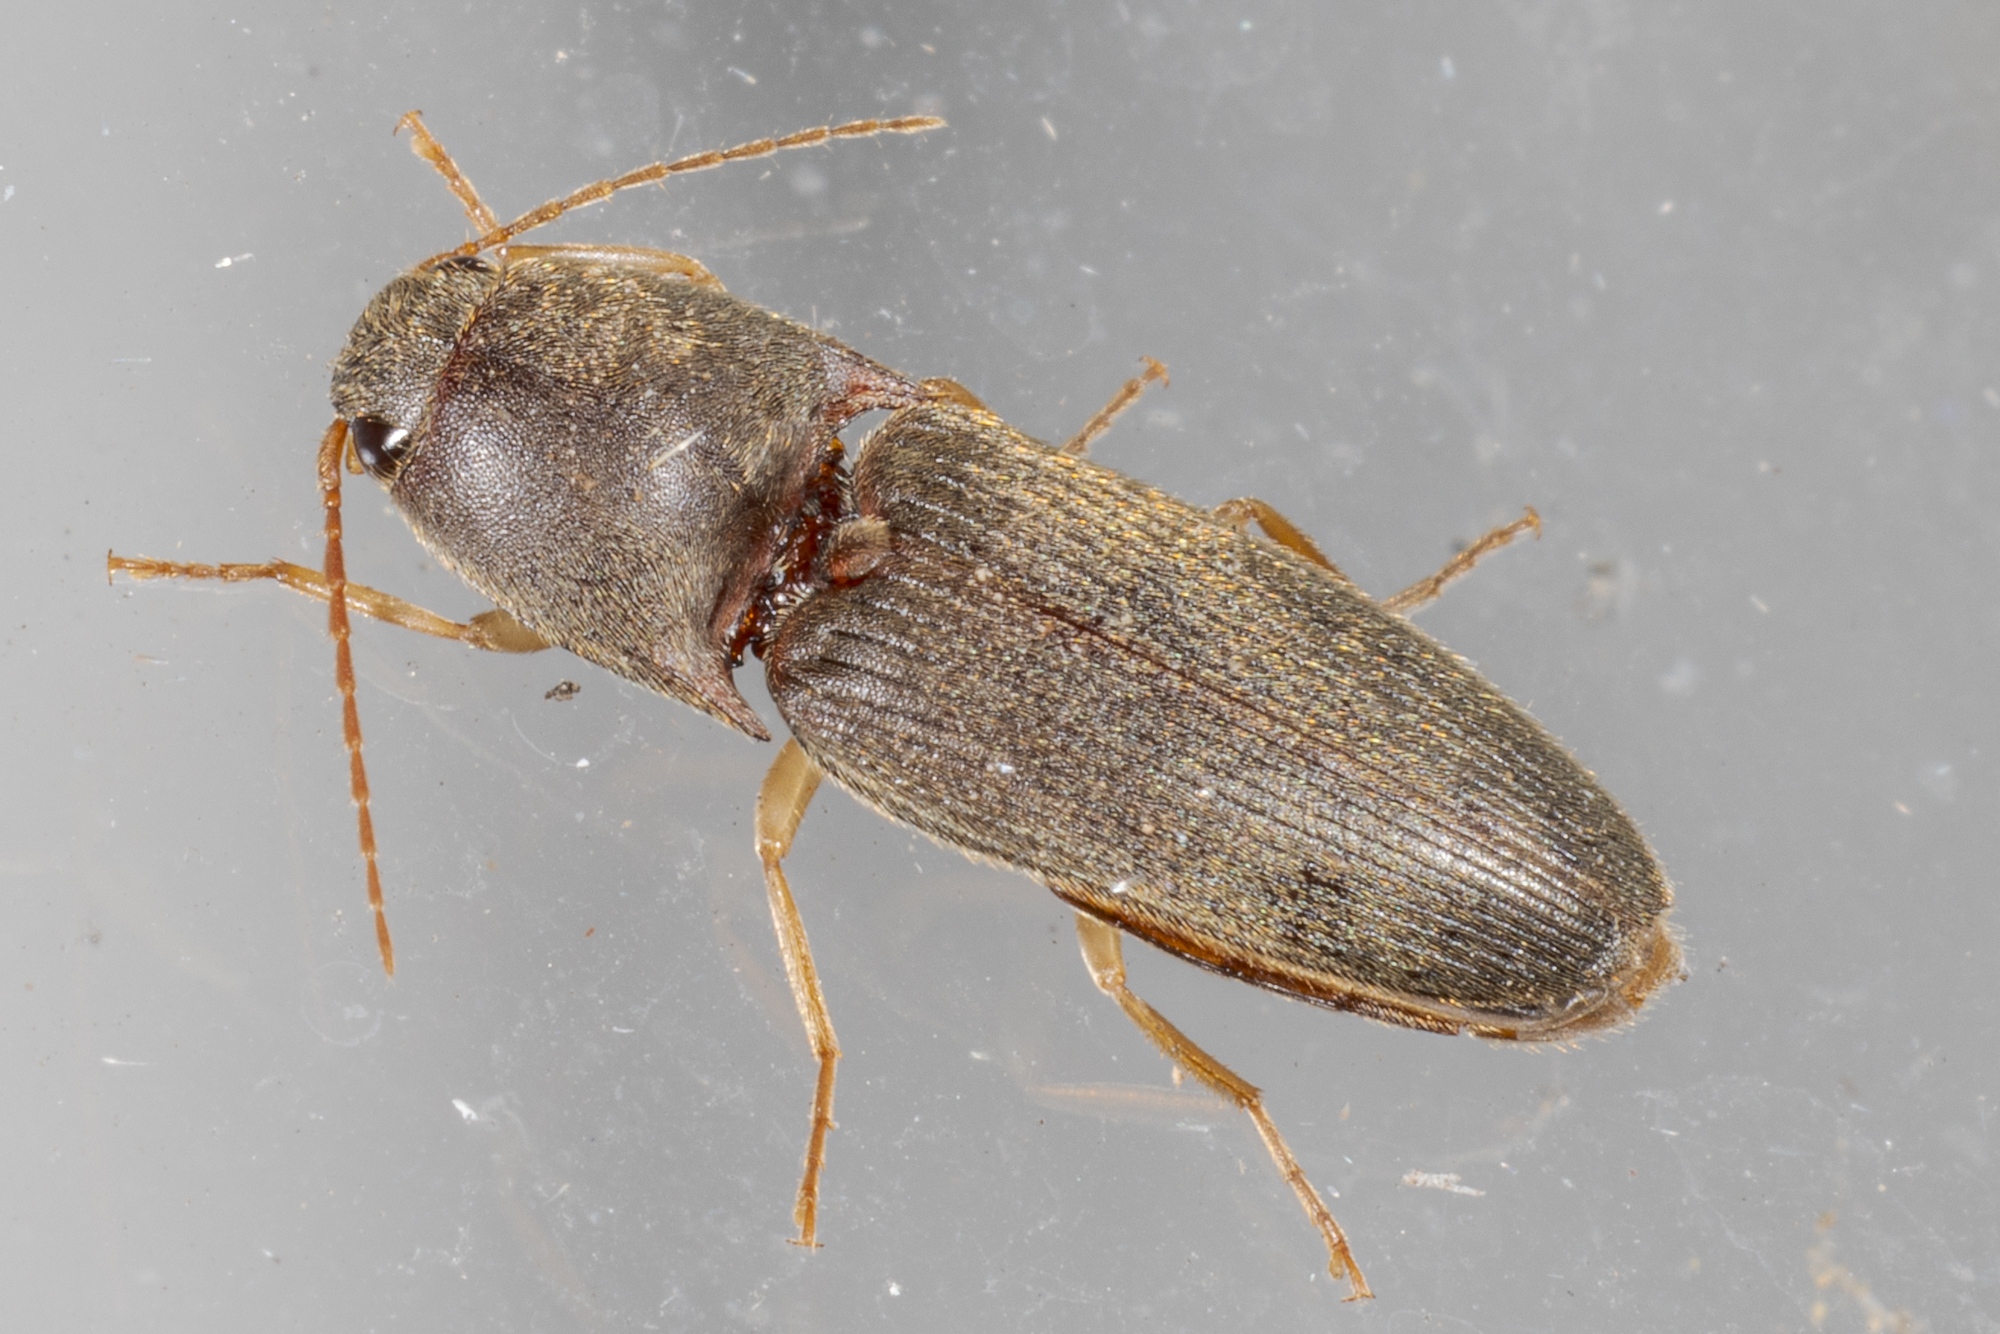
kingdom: Animalia
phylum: Arthropoda
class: Insecta
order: Coleoptera
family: Elateridae
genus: Conoderus
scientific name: Conoderus exsul
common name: Click beetle
